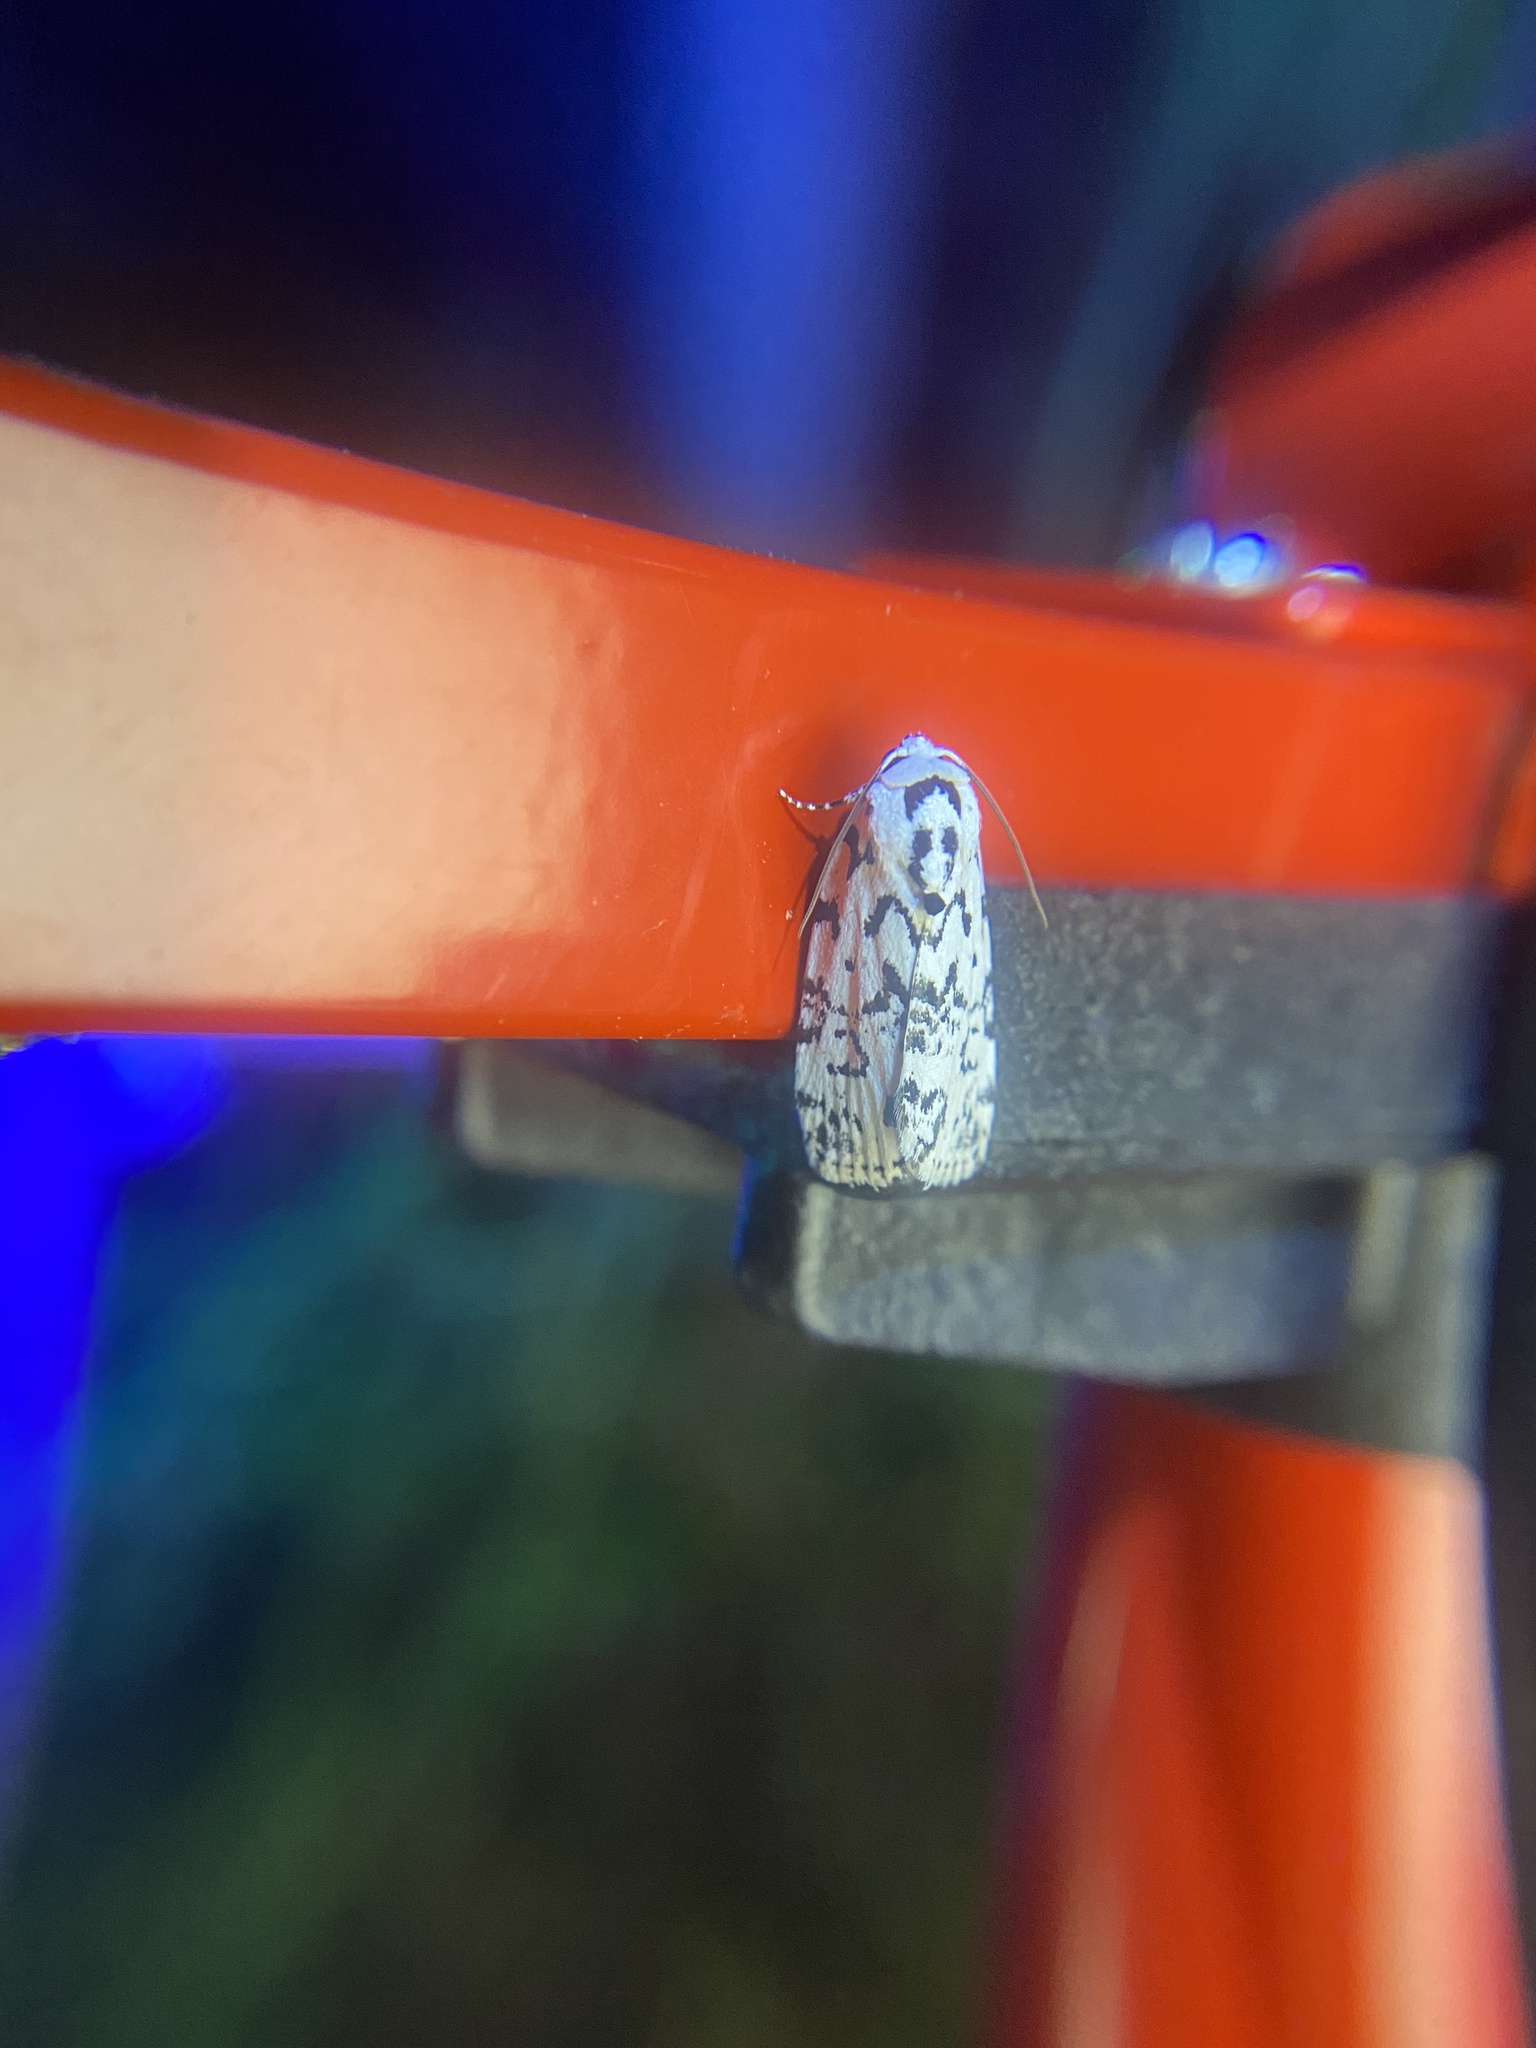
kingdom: Animalia
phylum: Arthropoda
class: Insecta
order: Lepidoptera
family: Noctuidae
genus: Polygrammate
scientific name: Polygrammate hebraeicum
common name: Hebrew moth
